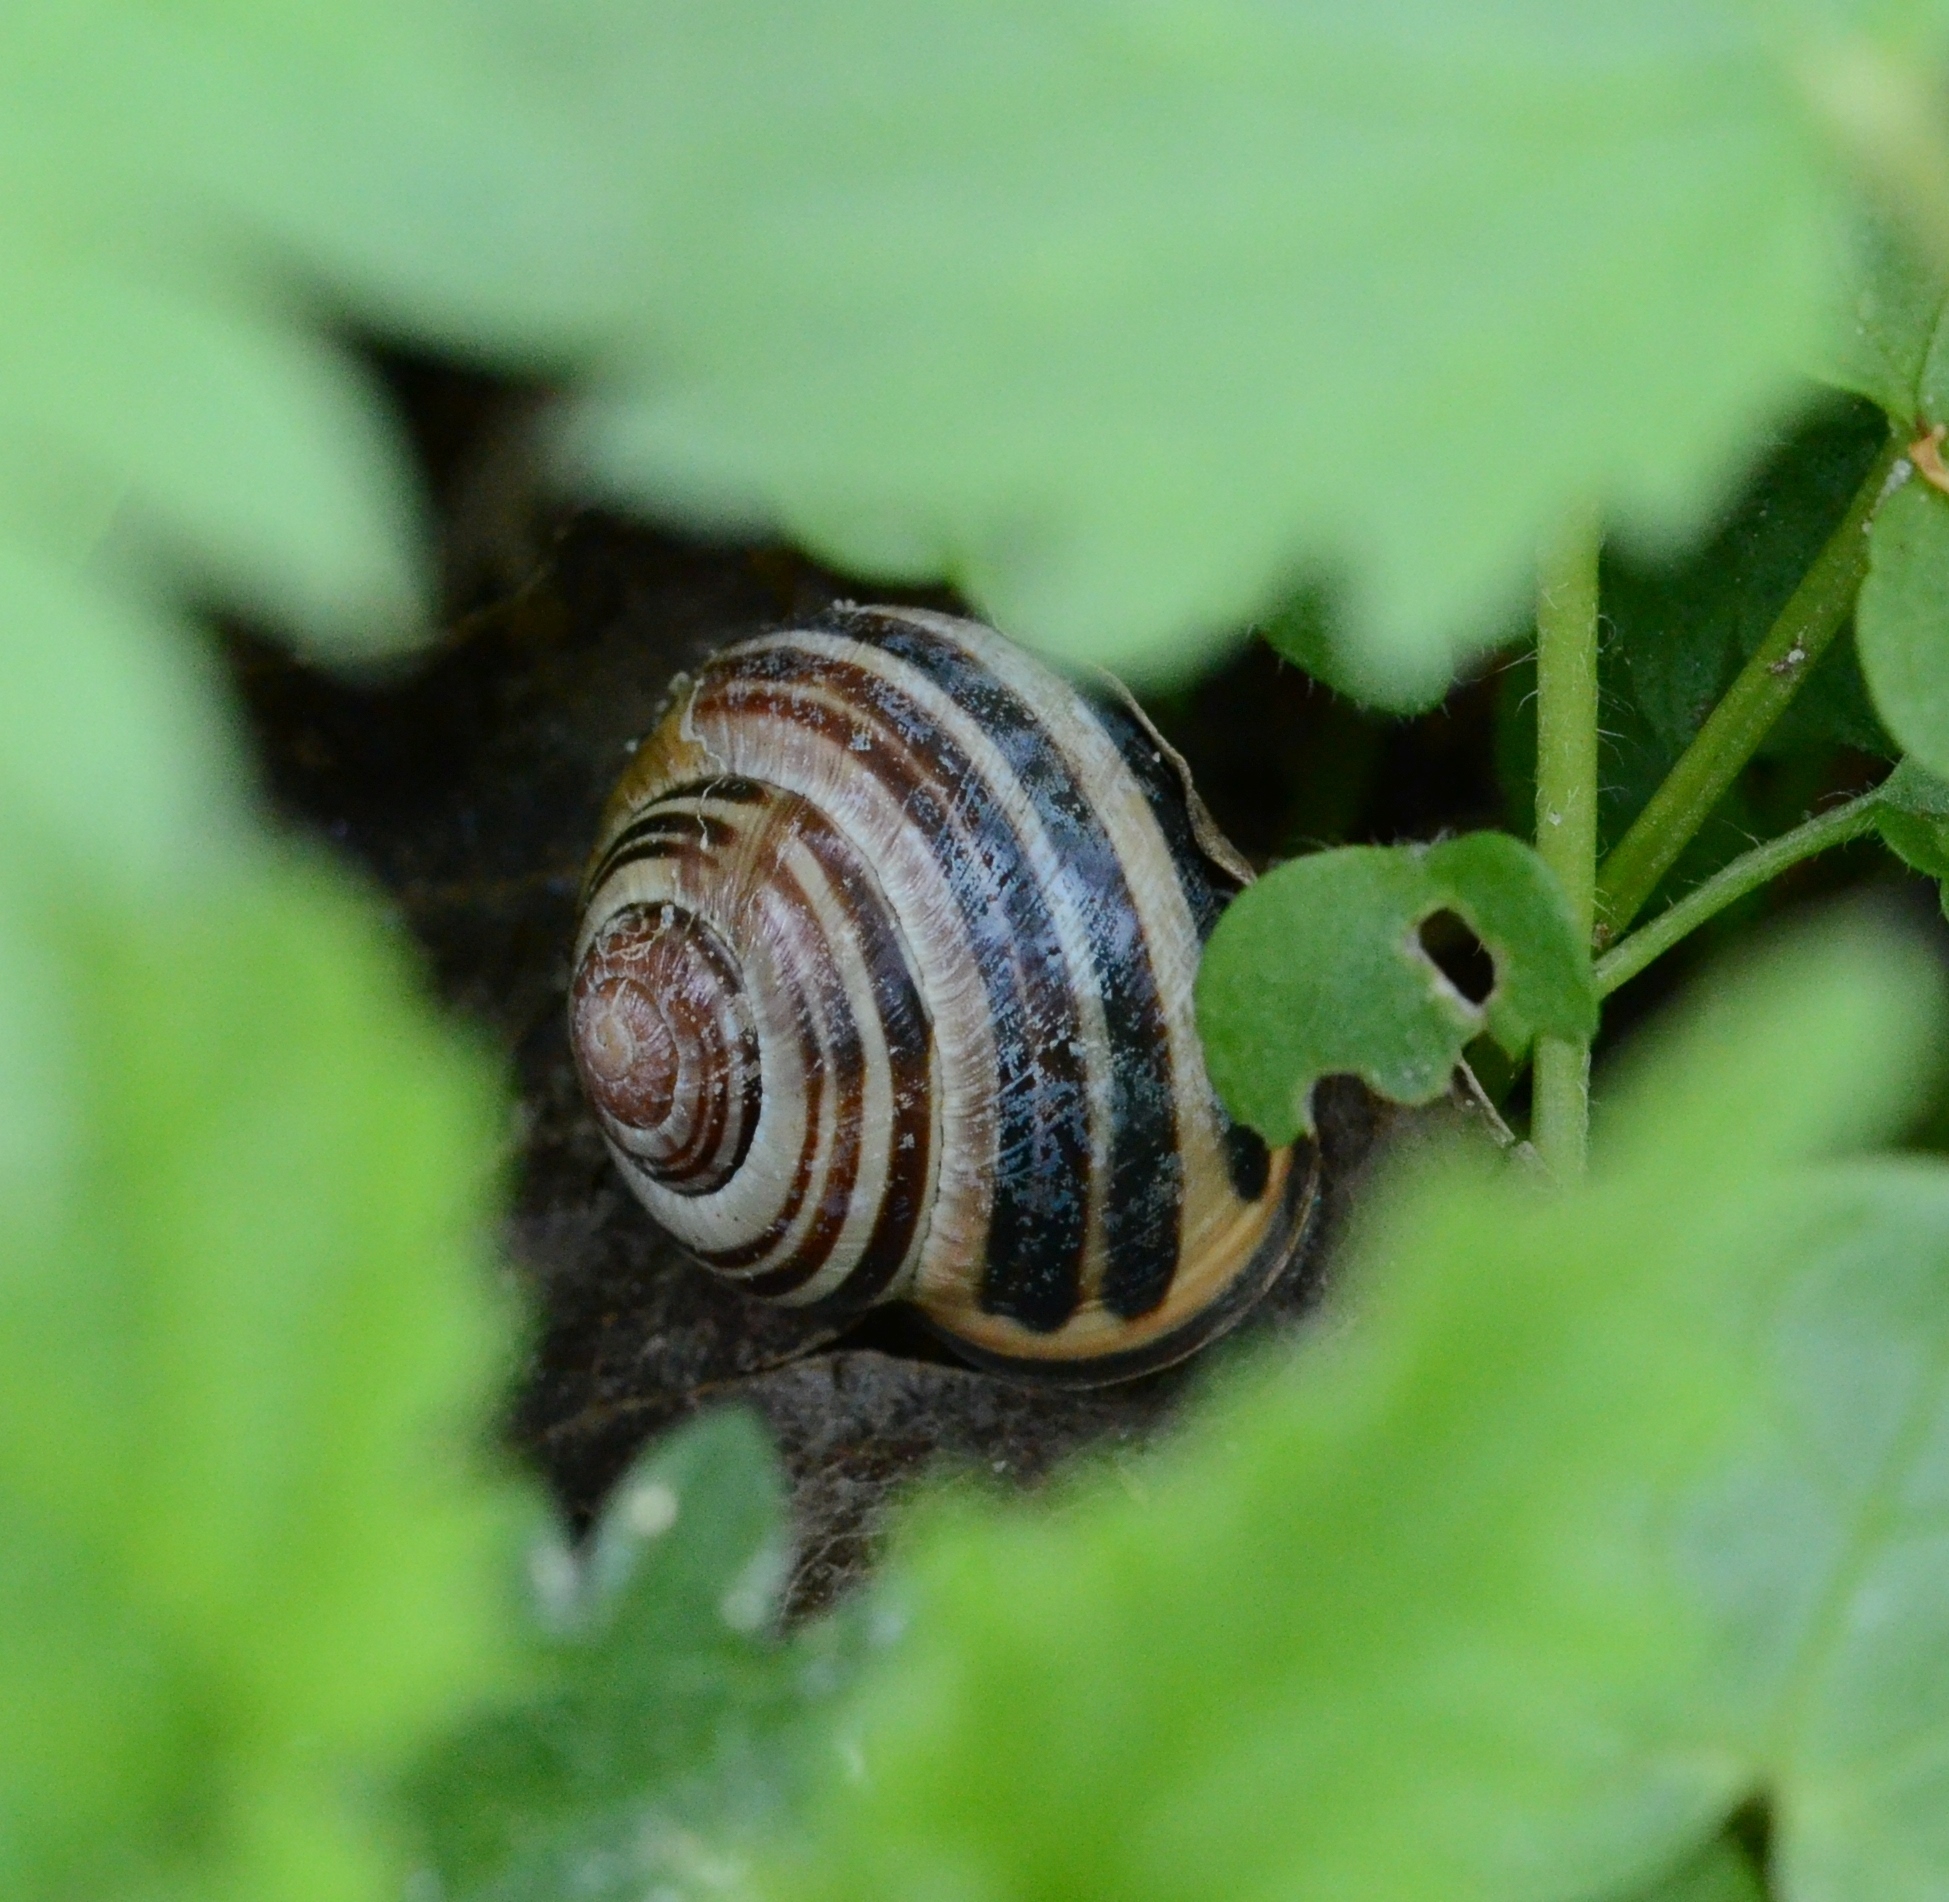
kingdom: Animalia
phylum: Mollusca
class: Gastropoda
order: Stylommatophora
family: Helicidae
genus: Cepaea
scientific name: Cepaea nemoralis
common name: Grovesnail
